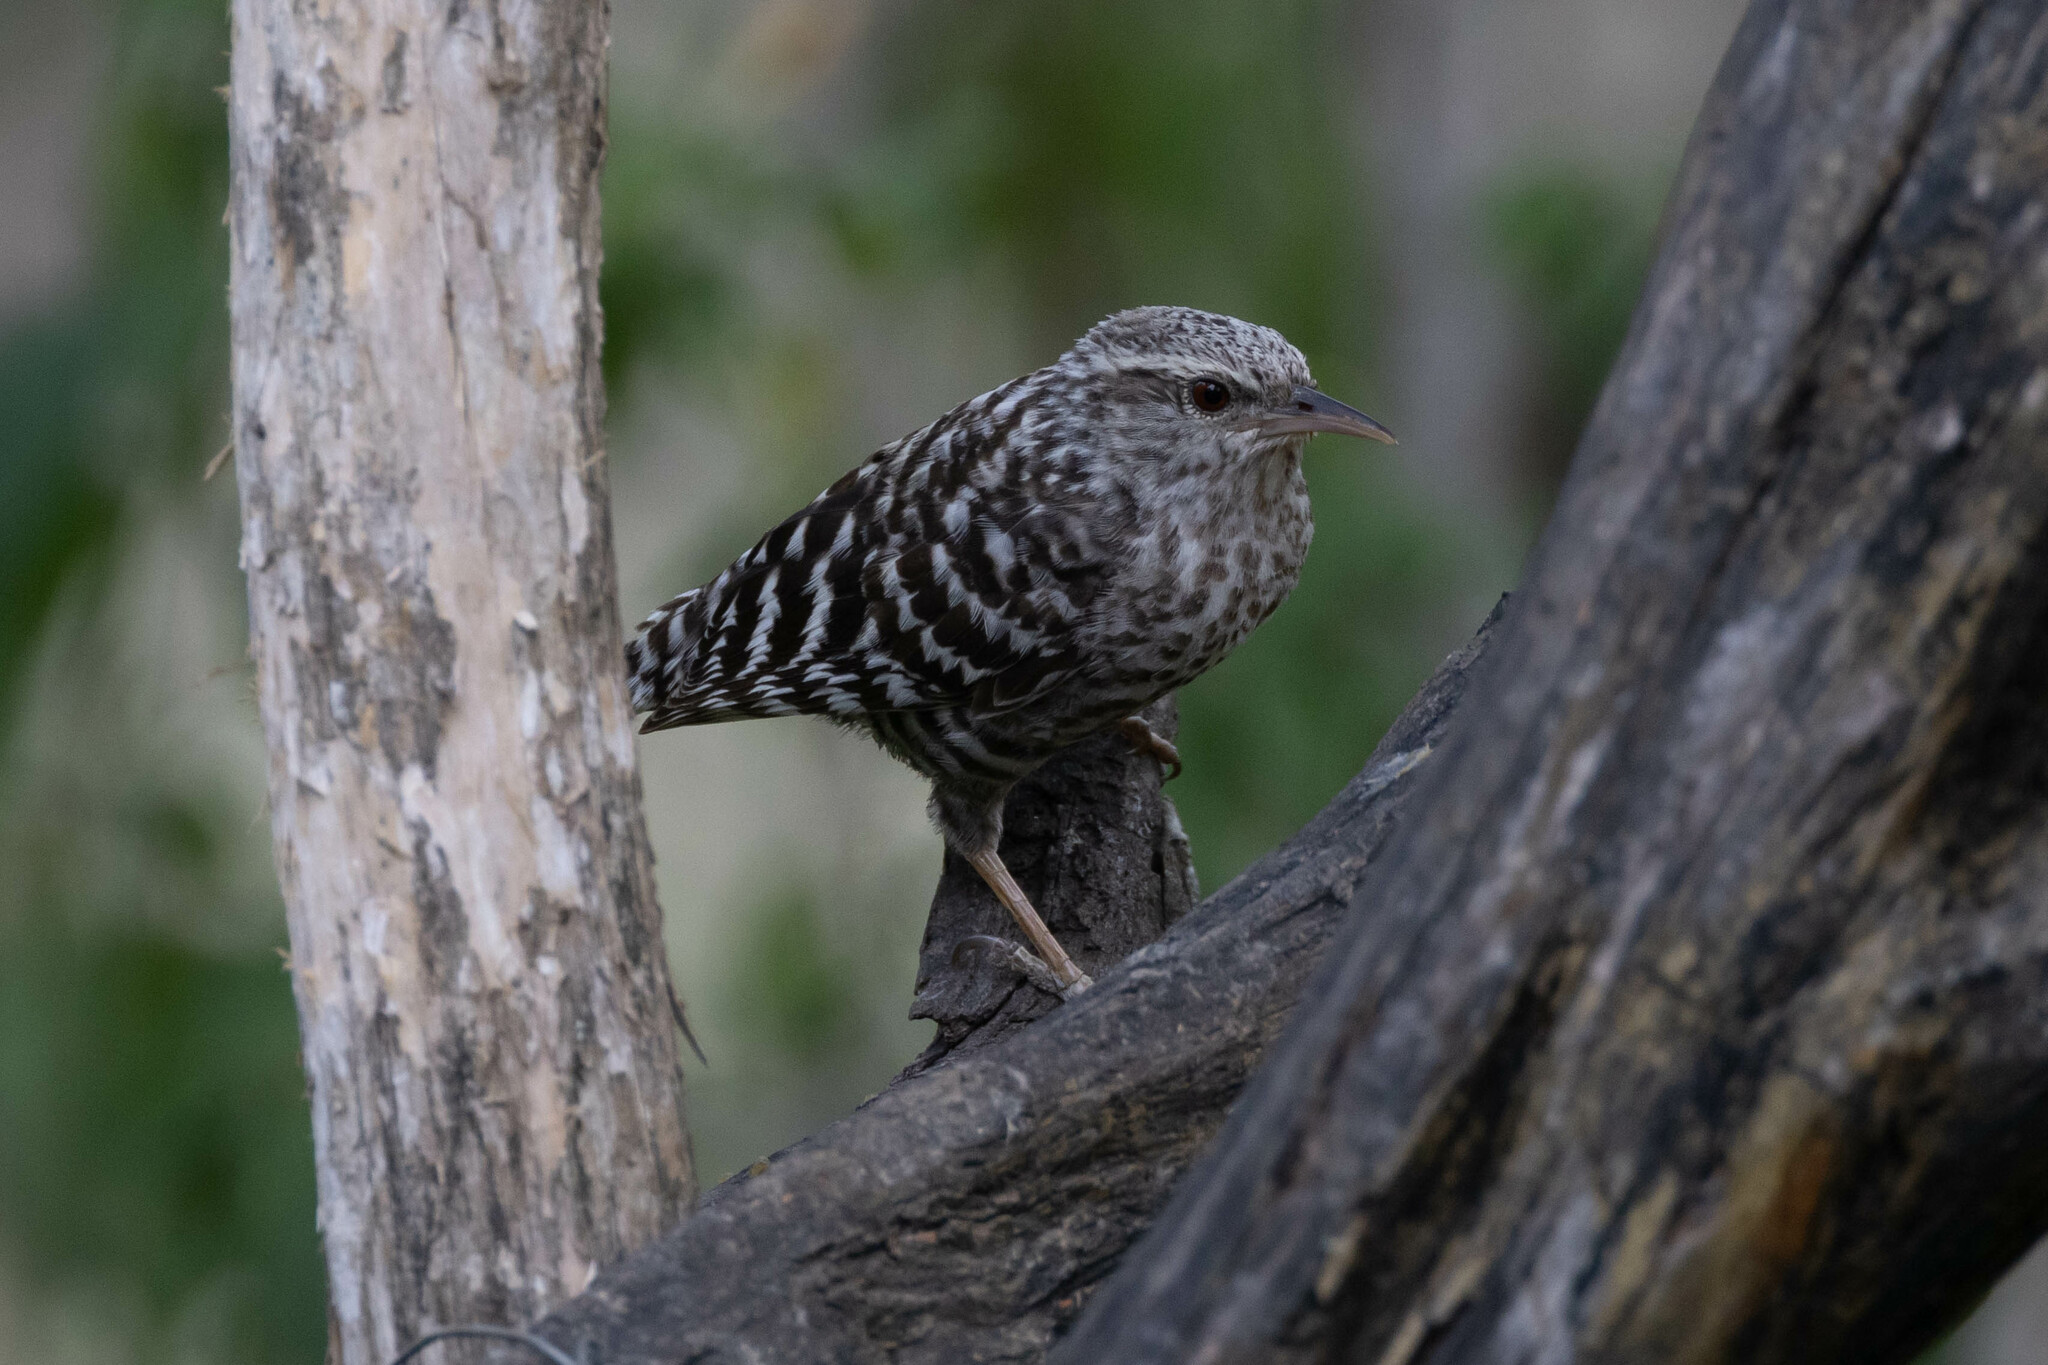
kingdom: Animalia
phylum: Chordata
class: Aves
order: Passeriformes
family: Troglodytidae
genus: Campylorhynchus
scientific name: Campylorhynchus fasciatus
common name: Fasciated wren
